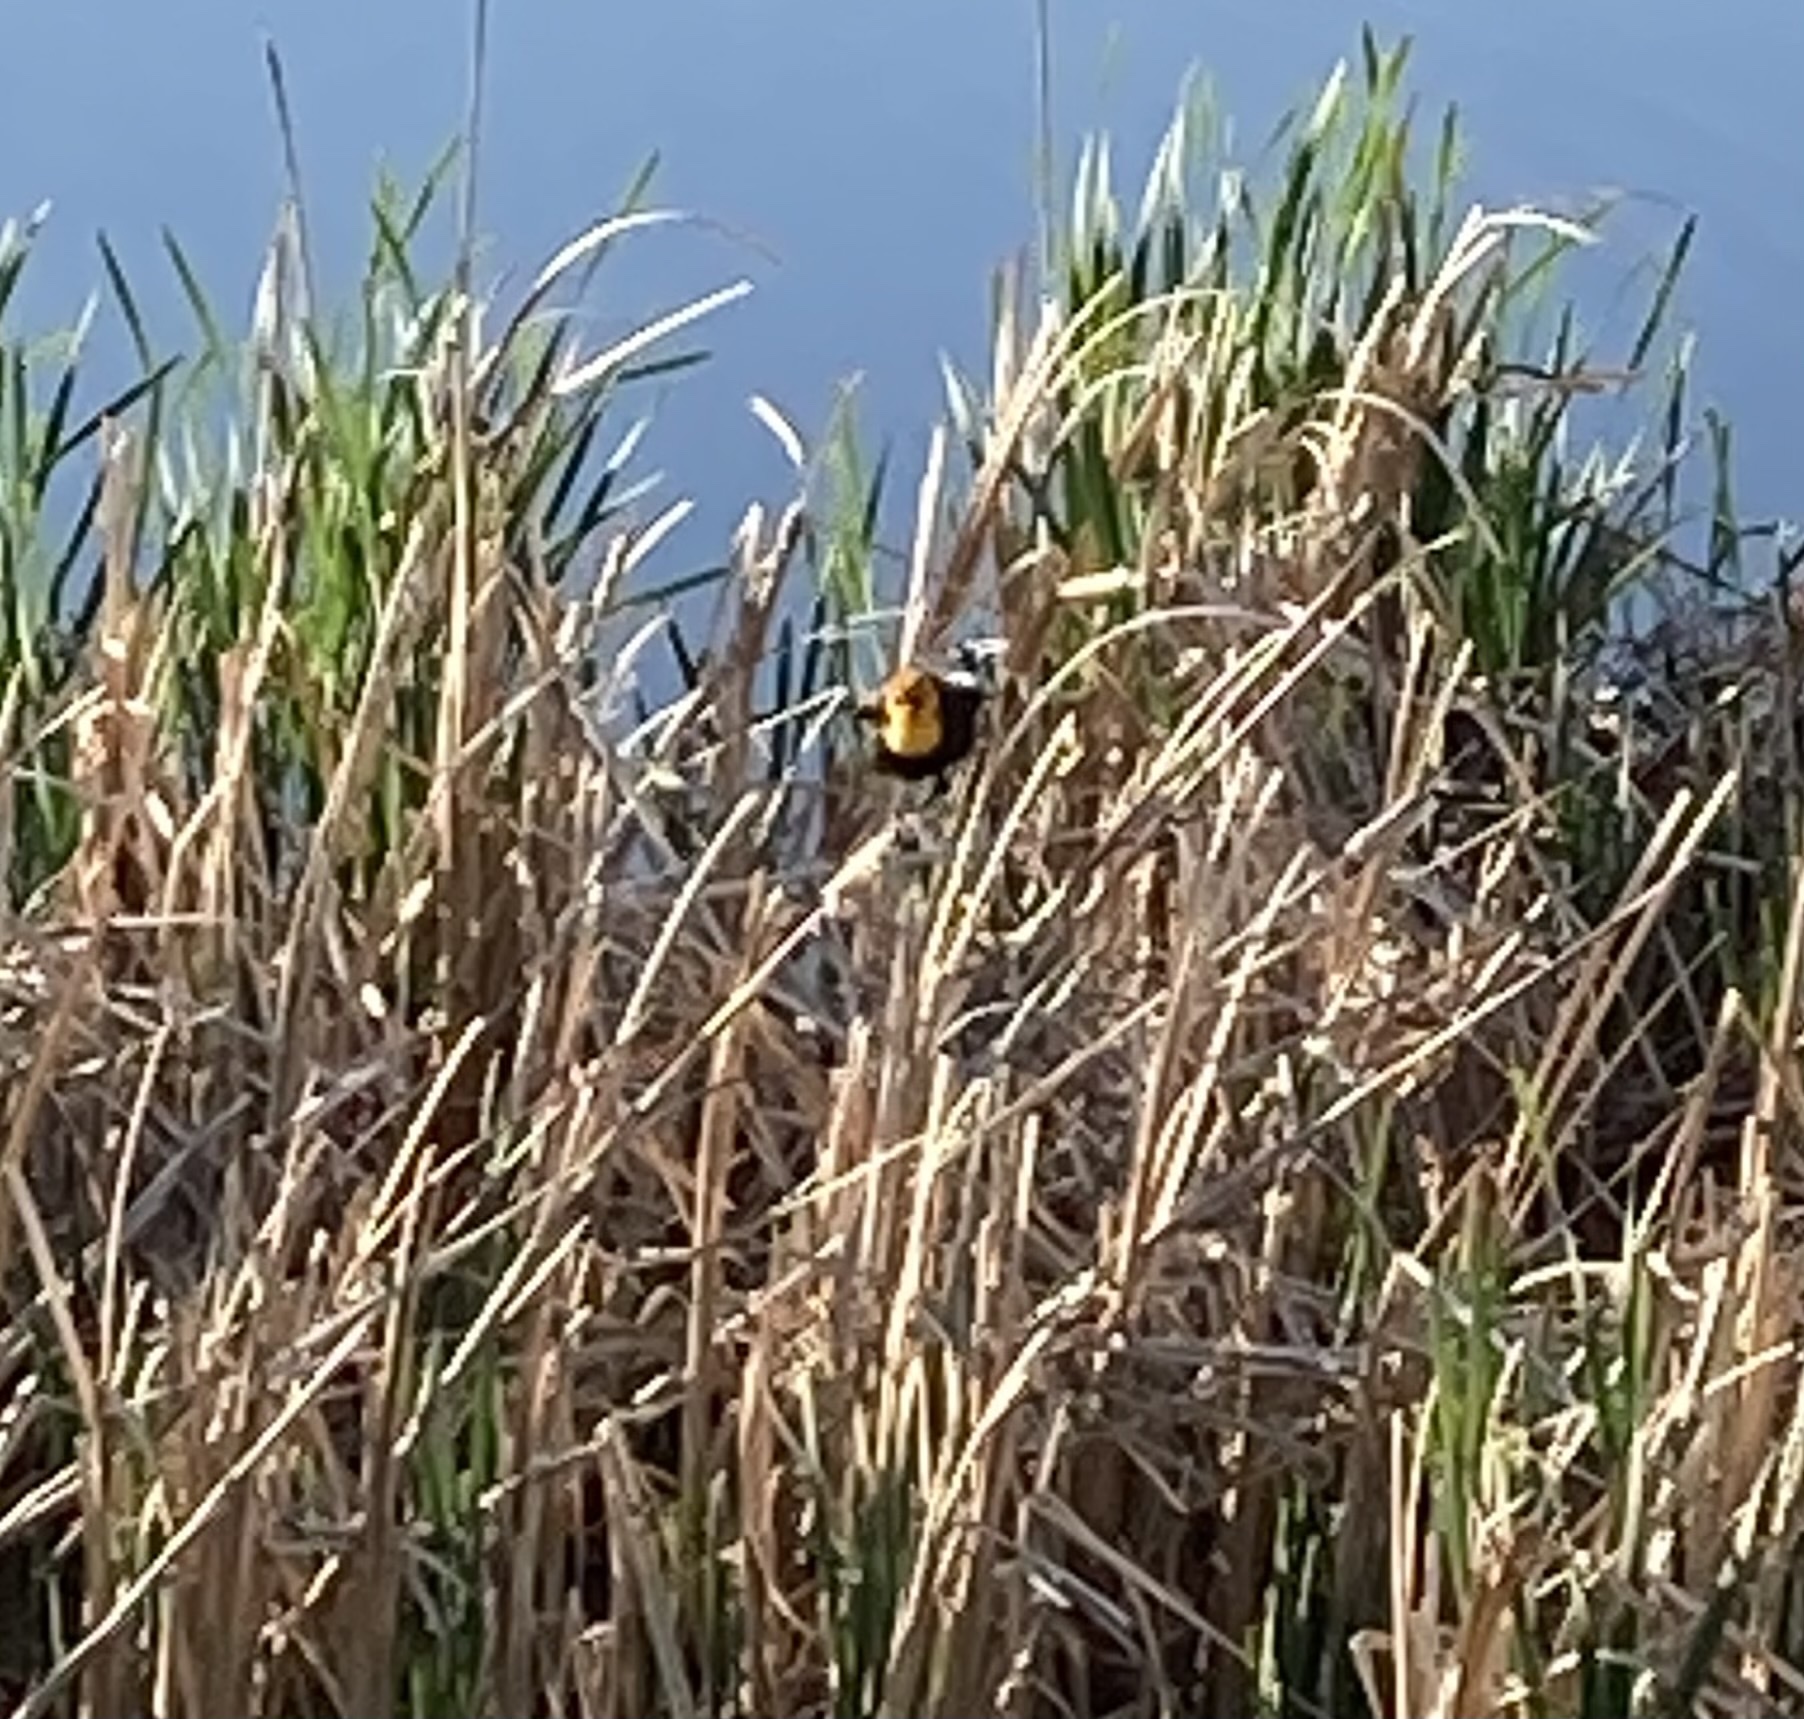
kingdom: Animalia
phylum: Chordata
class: Aves
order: Passeriformes
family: Icteridae
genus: Xanthocephalus
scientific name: Xanthocephalus xanthocephalus
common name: Yellow-headed blackbird
